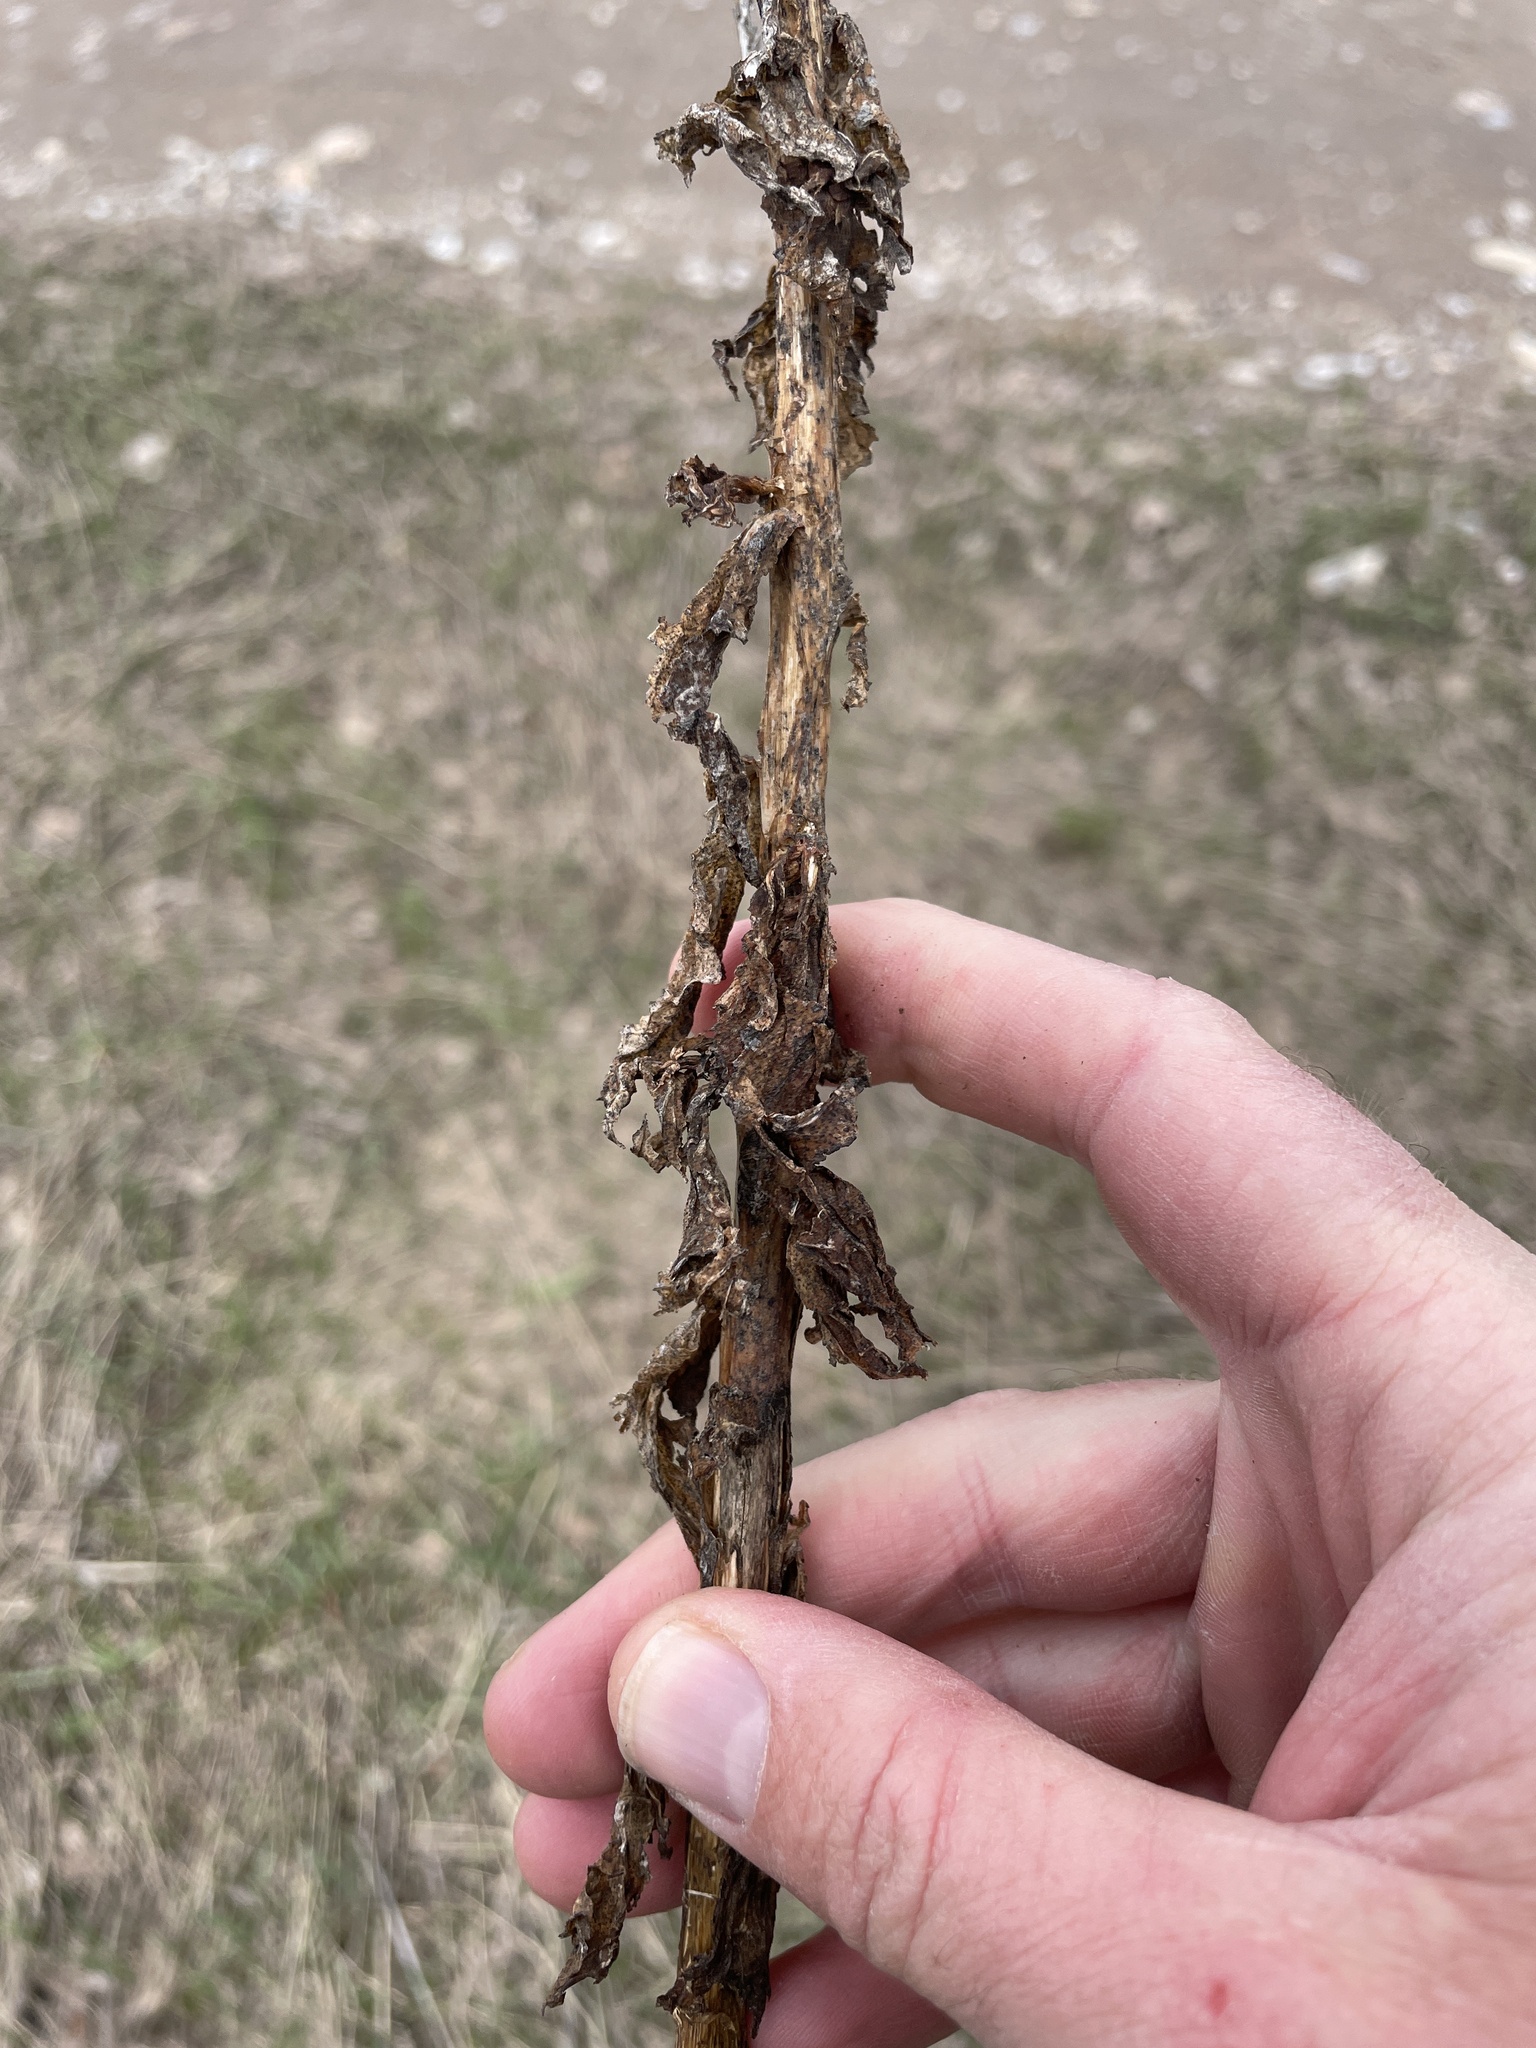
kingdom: Plantae
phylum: Tracheophyta
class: Magnoliopsida
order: Lamiales
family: Scrophulariaceae
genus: Verbascum
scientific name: Verbascum blattaria
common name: Moth mullein
